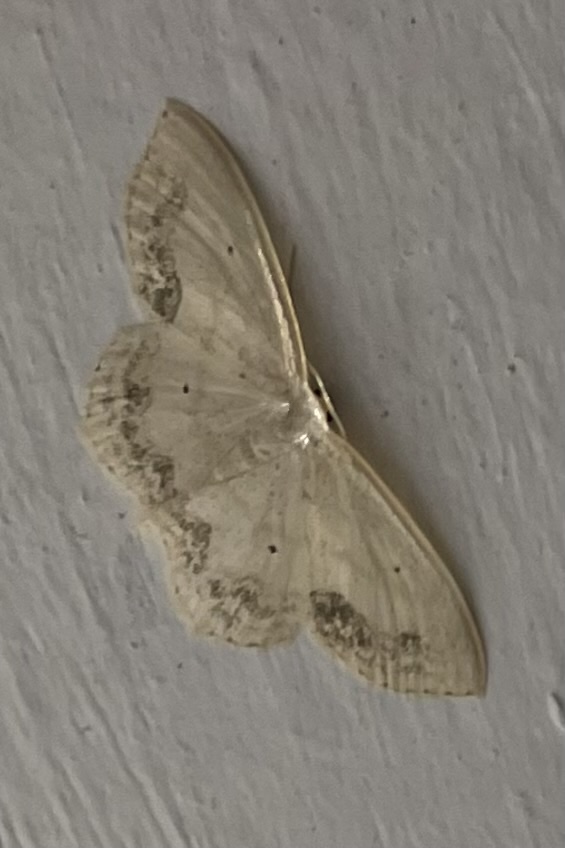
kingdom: Animalia
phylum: Arthropoda
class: Insecta
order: Lepidoptera
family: Geometridae
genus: Scopula
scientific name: Scopula limboundata
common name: Large lace border
